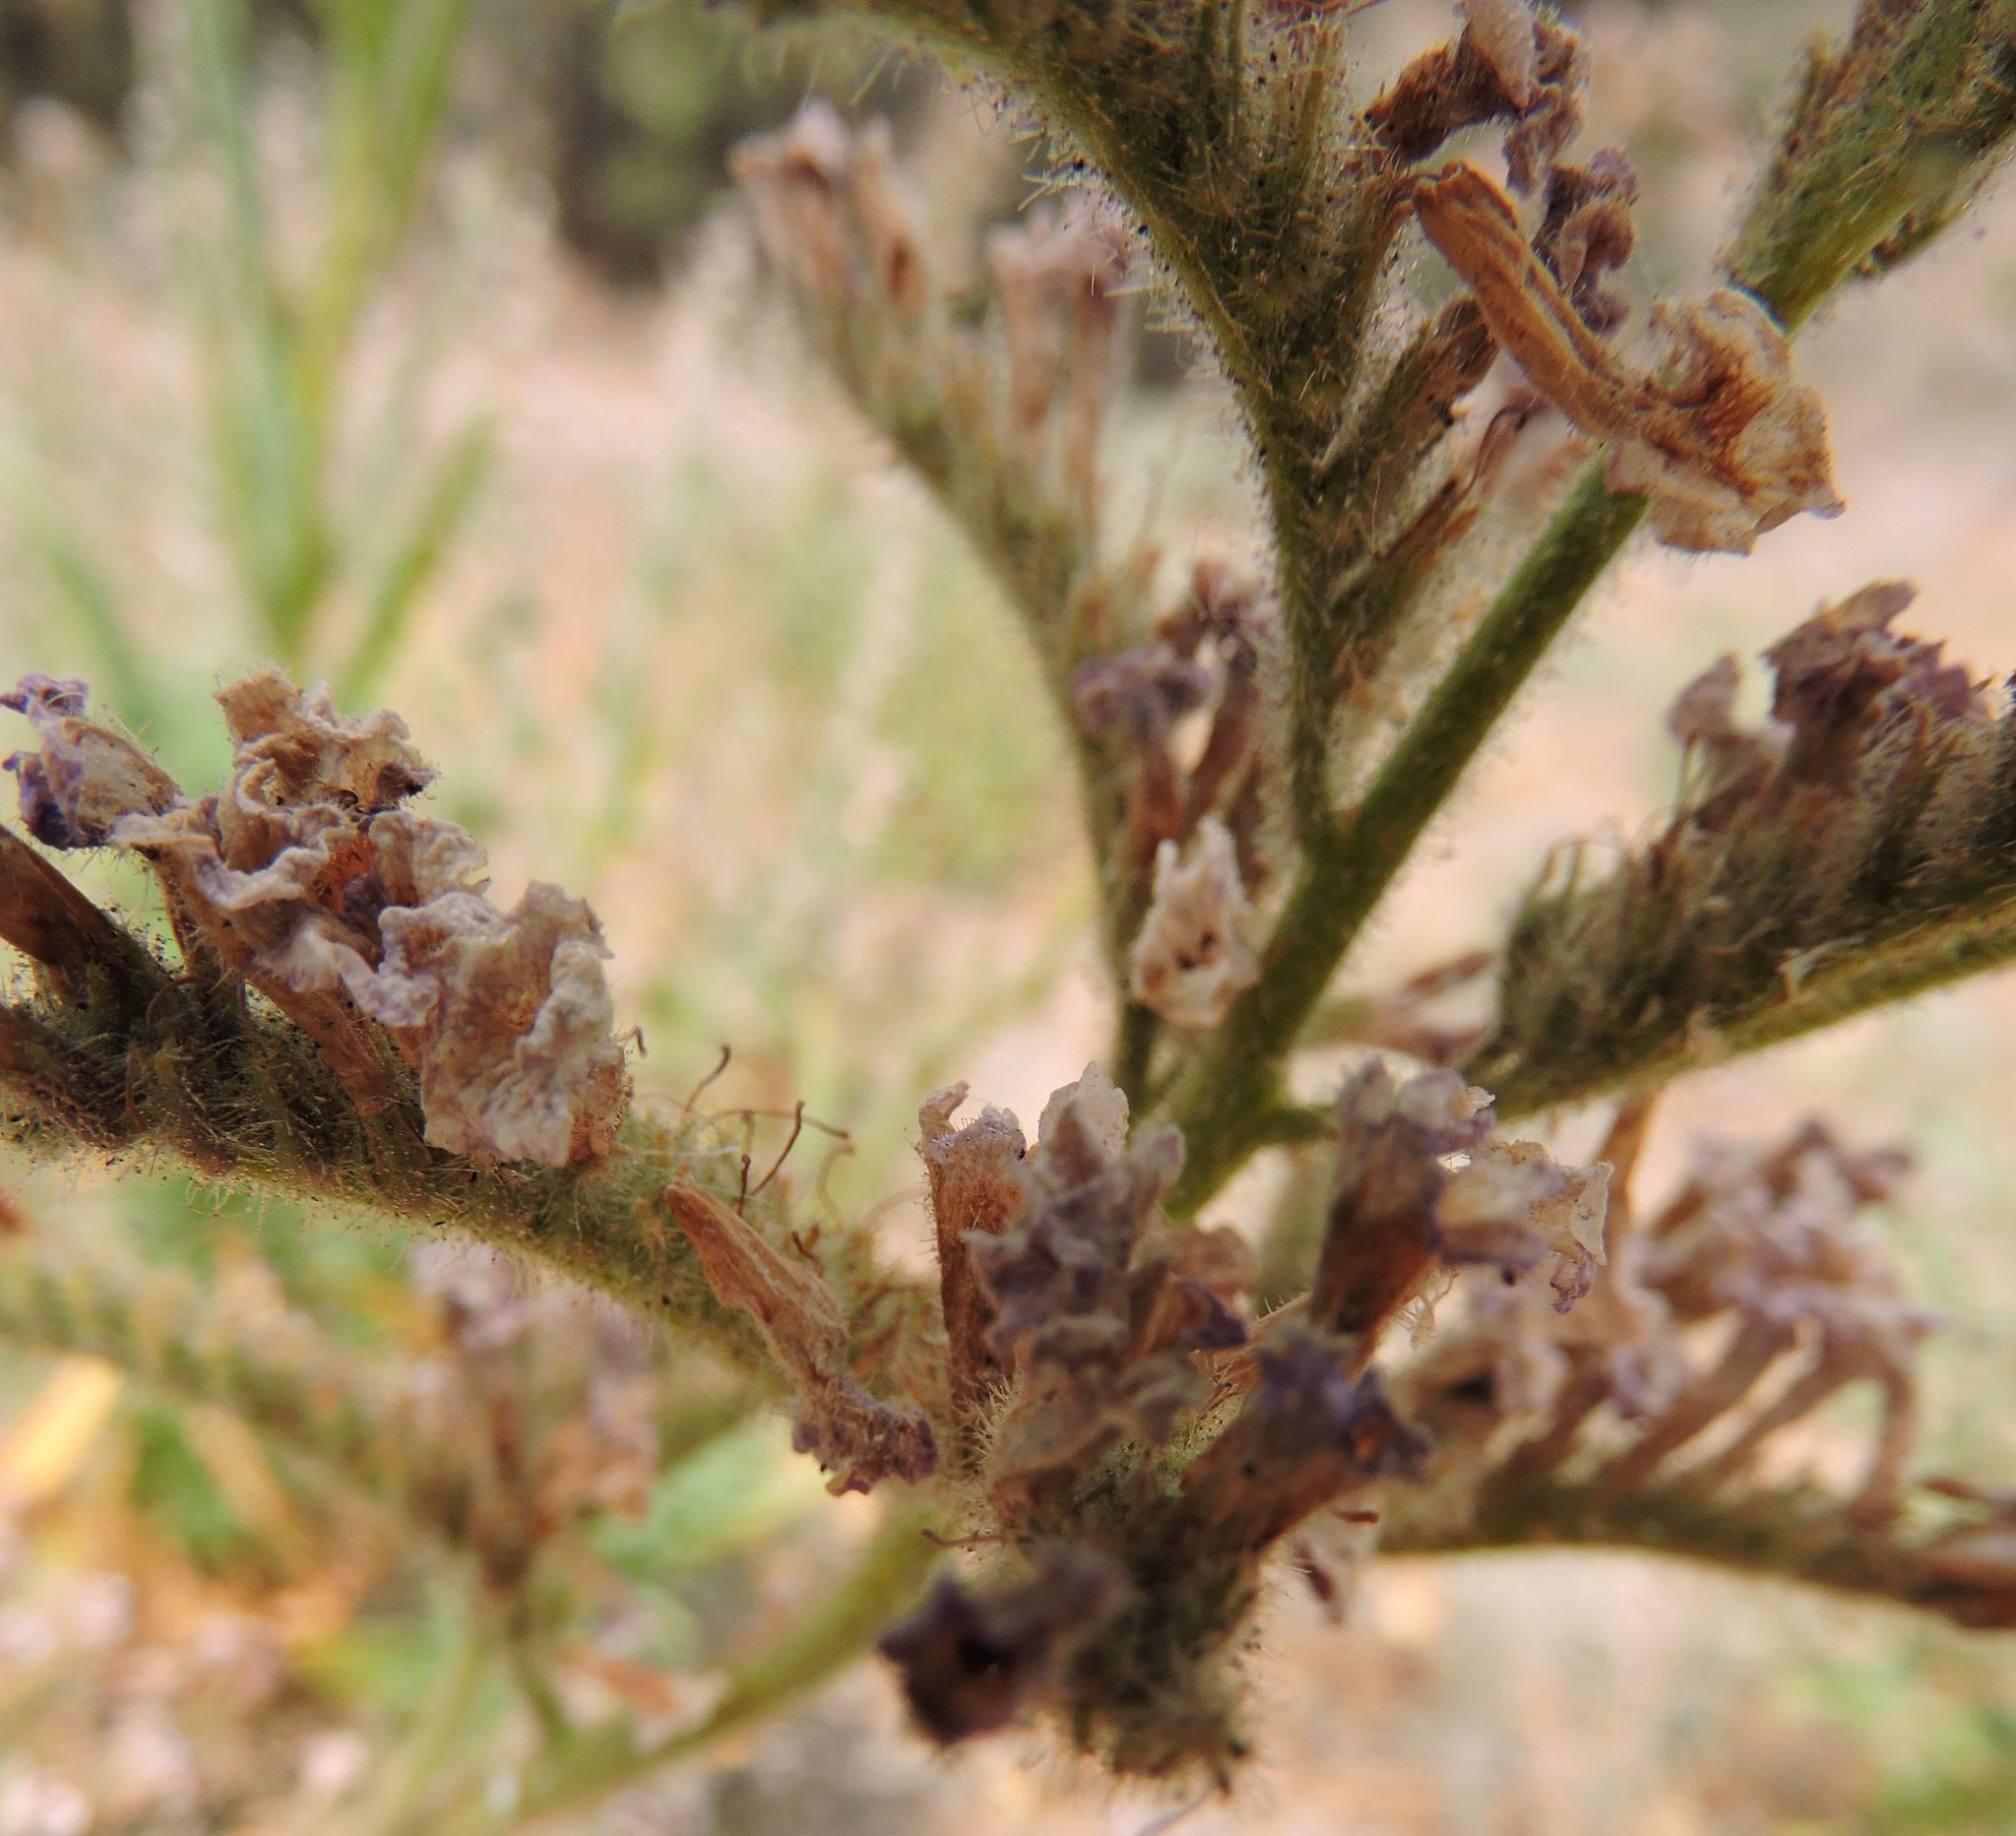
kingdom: Plantae
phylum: Tracheophyta
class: Magnoliopsida
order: Boraginales
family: Namaceae
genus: Turricula
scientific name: Turricula parryi
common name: Poodle-dog-bush
